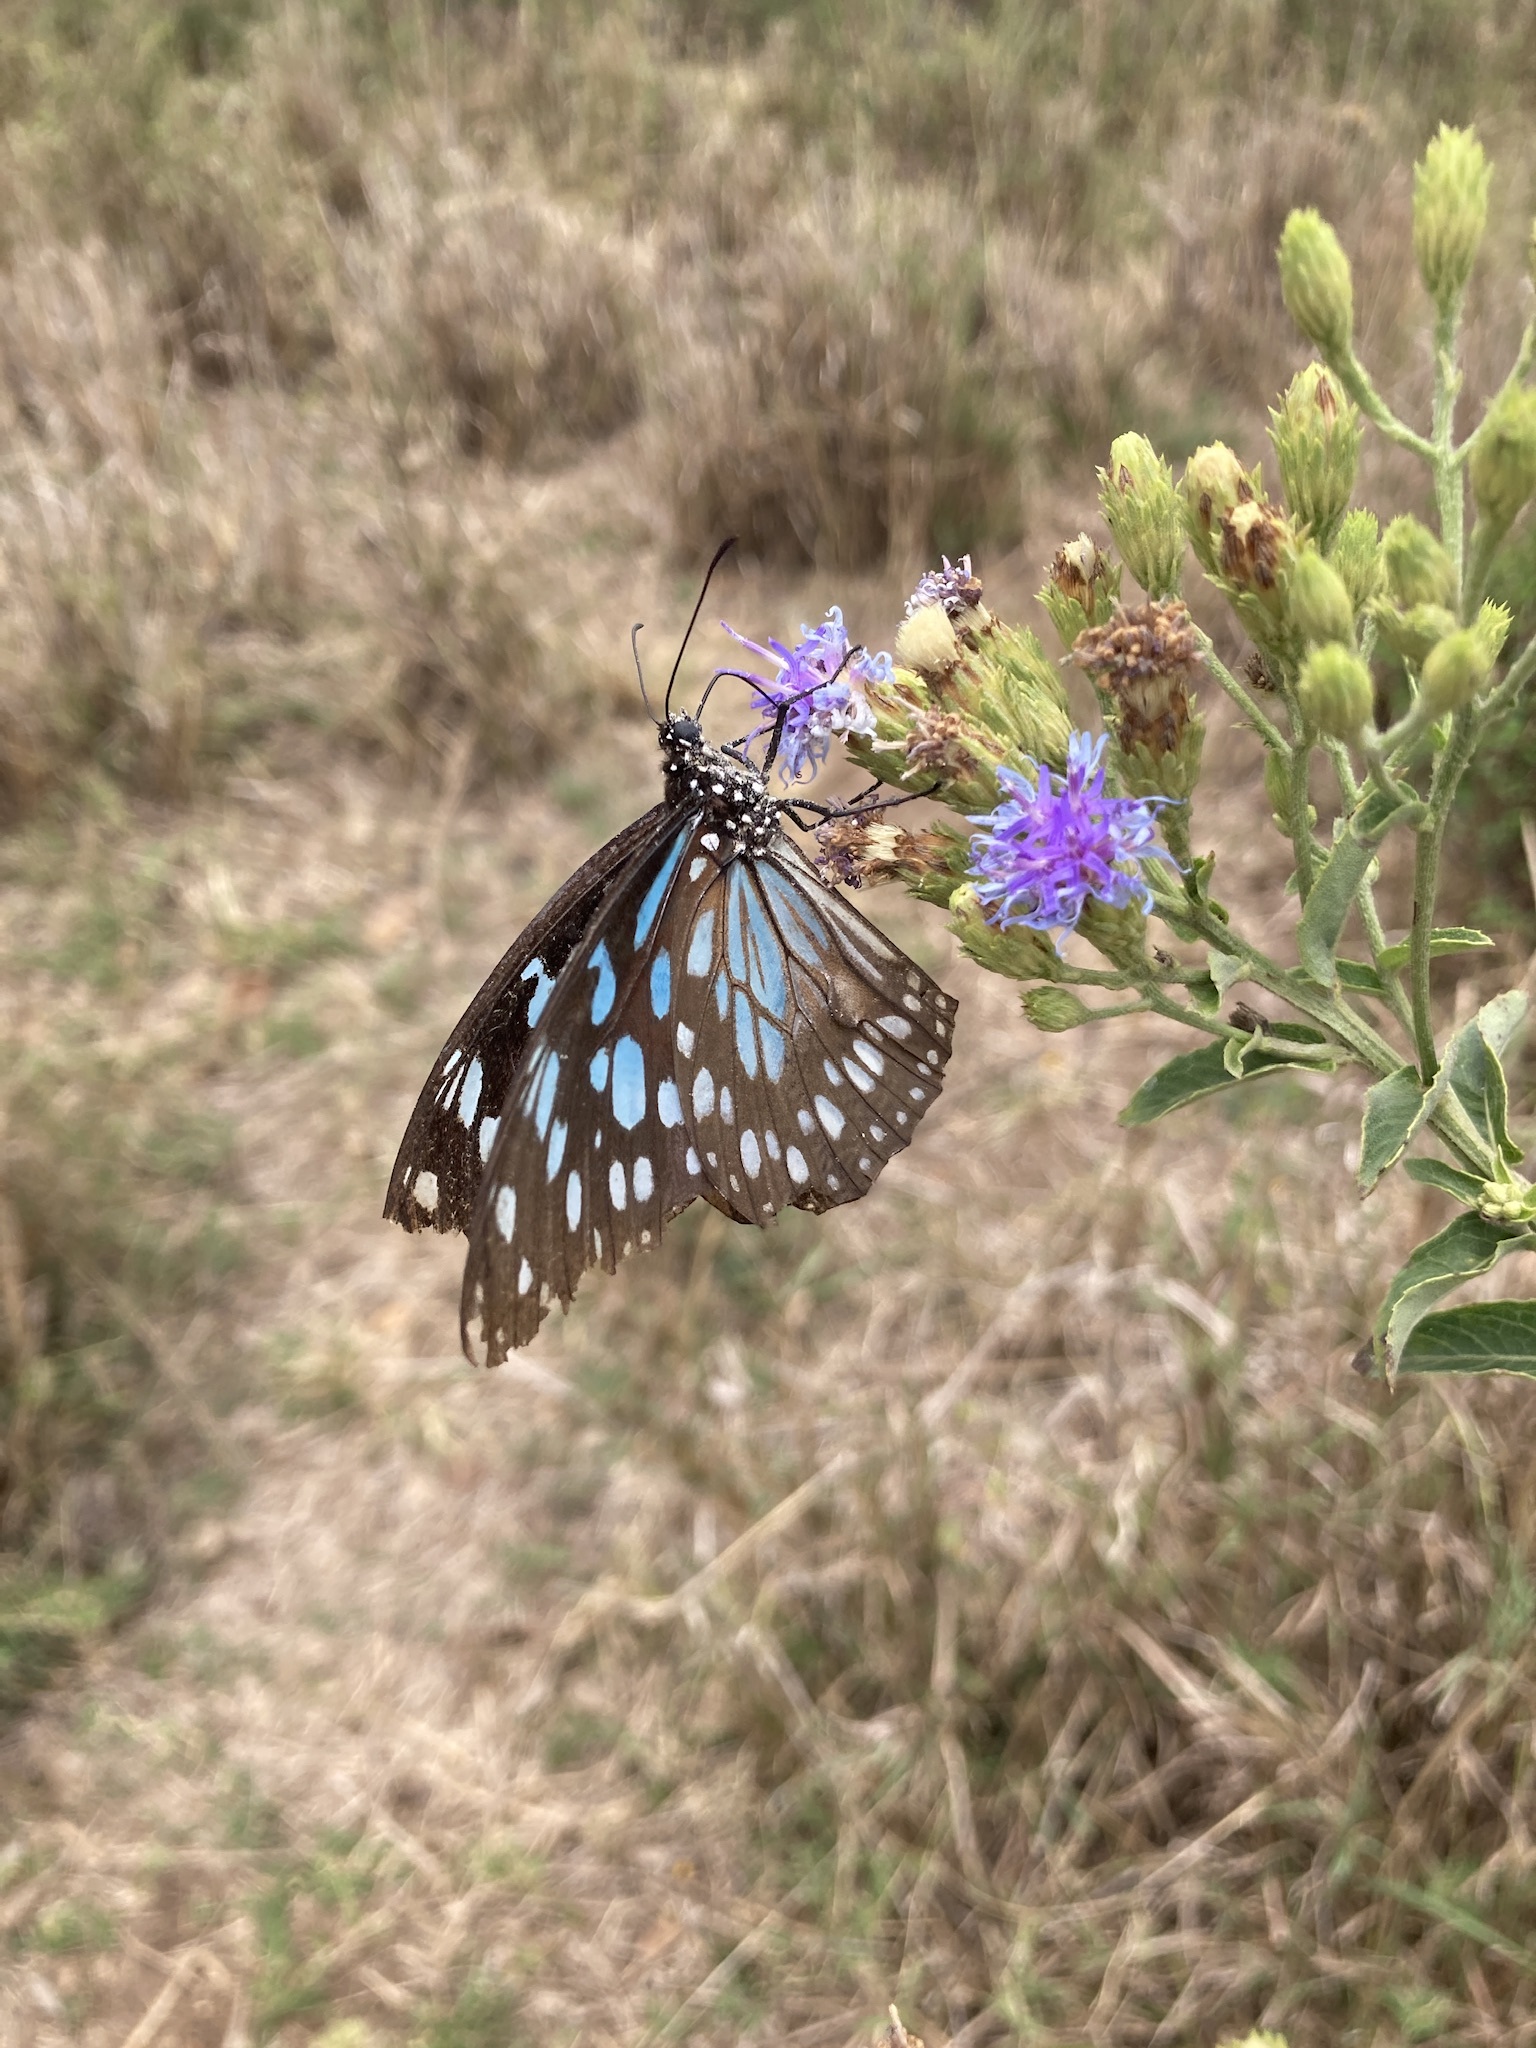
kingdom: Animalia
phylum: Arthropoda
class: Insecta
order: Lepidoptera
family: Nymphalidae
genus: Tirumala
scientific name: Tirumala petiverana
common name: Blue monarch
